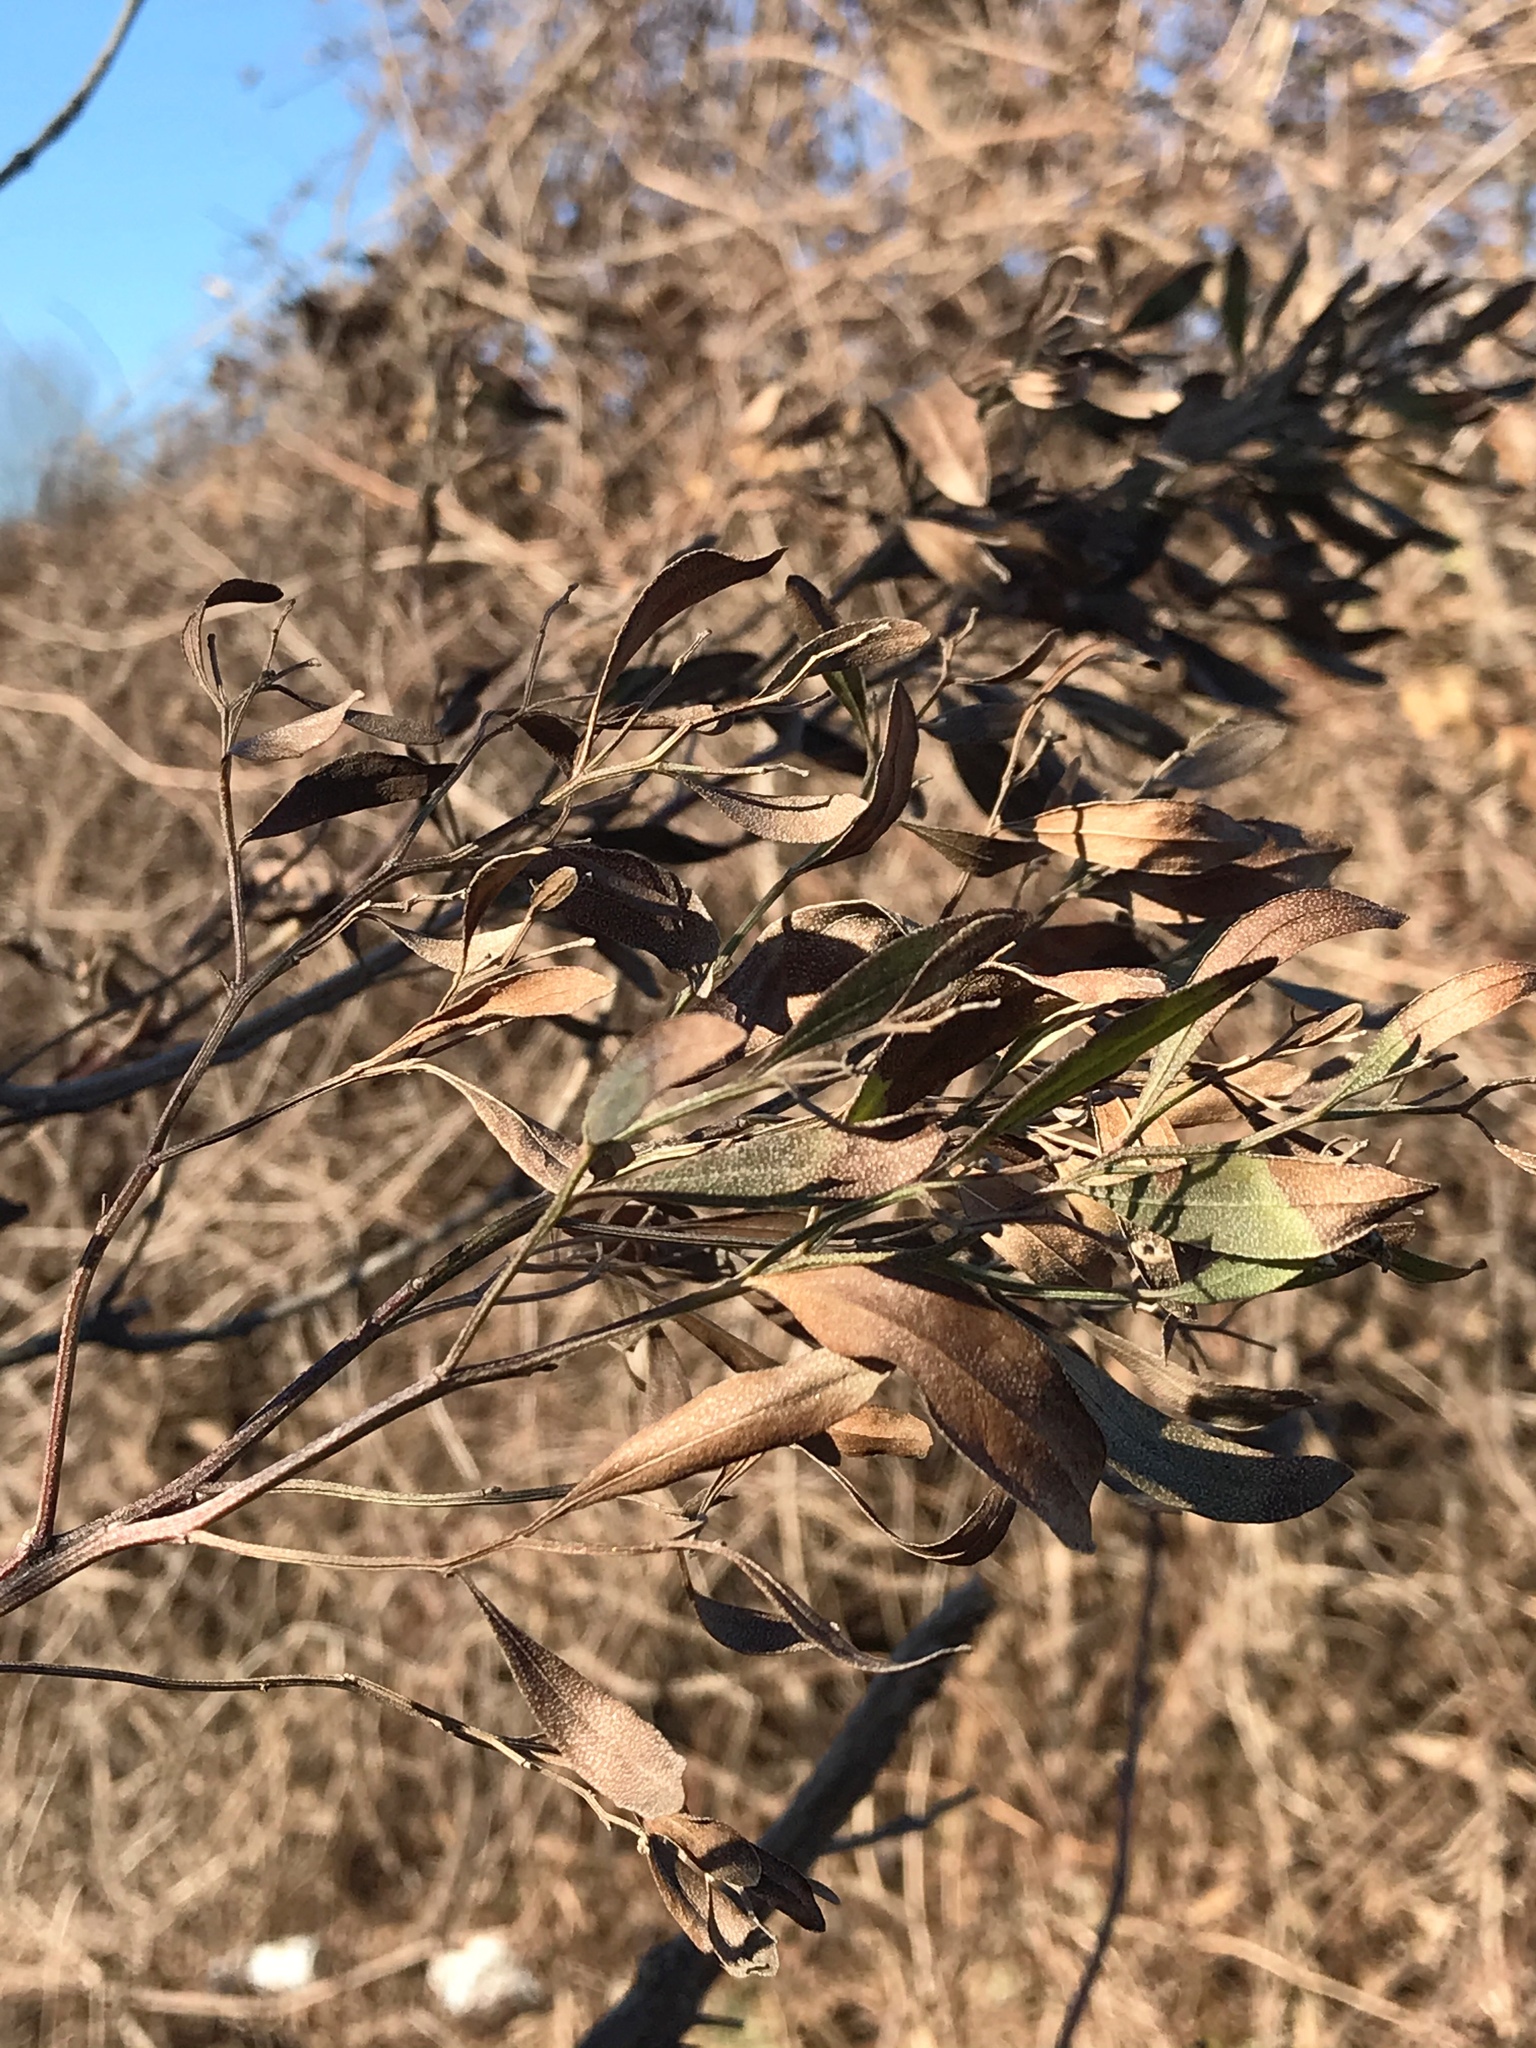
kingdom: Plantae
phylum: Tracheophyta
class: Magnoliopsida
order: Asterales
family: Asteraceae
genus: Baccharis
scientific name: Baccharis halimifolia
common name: Eastern baccharis
